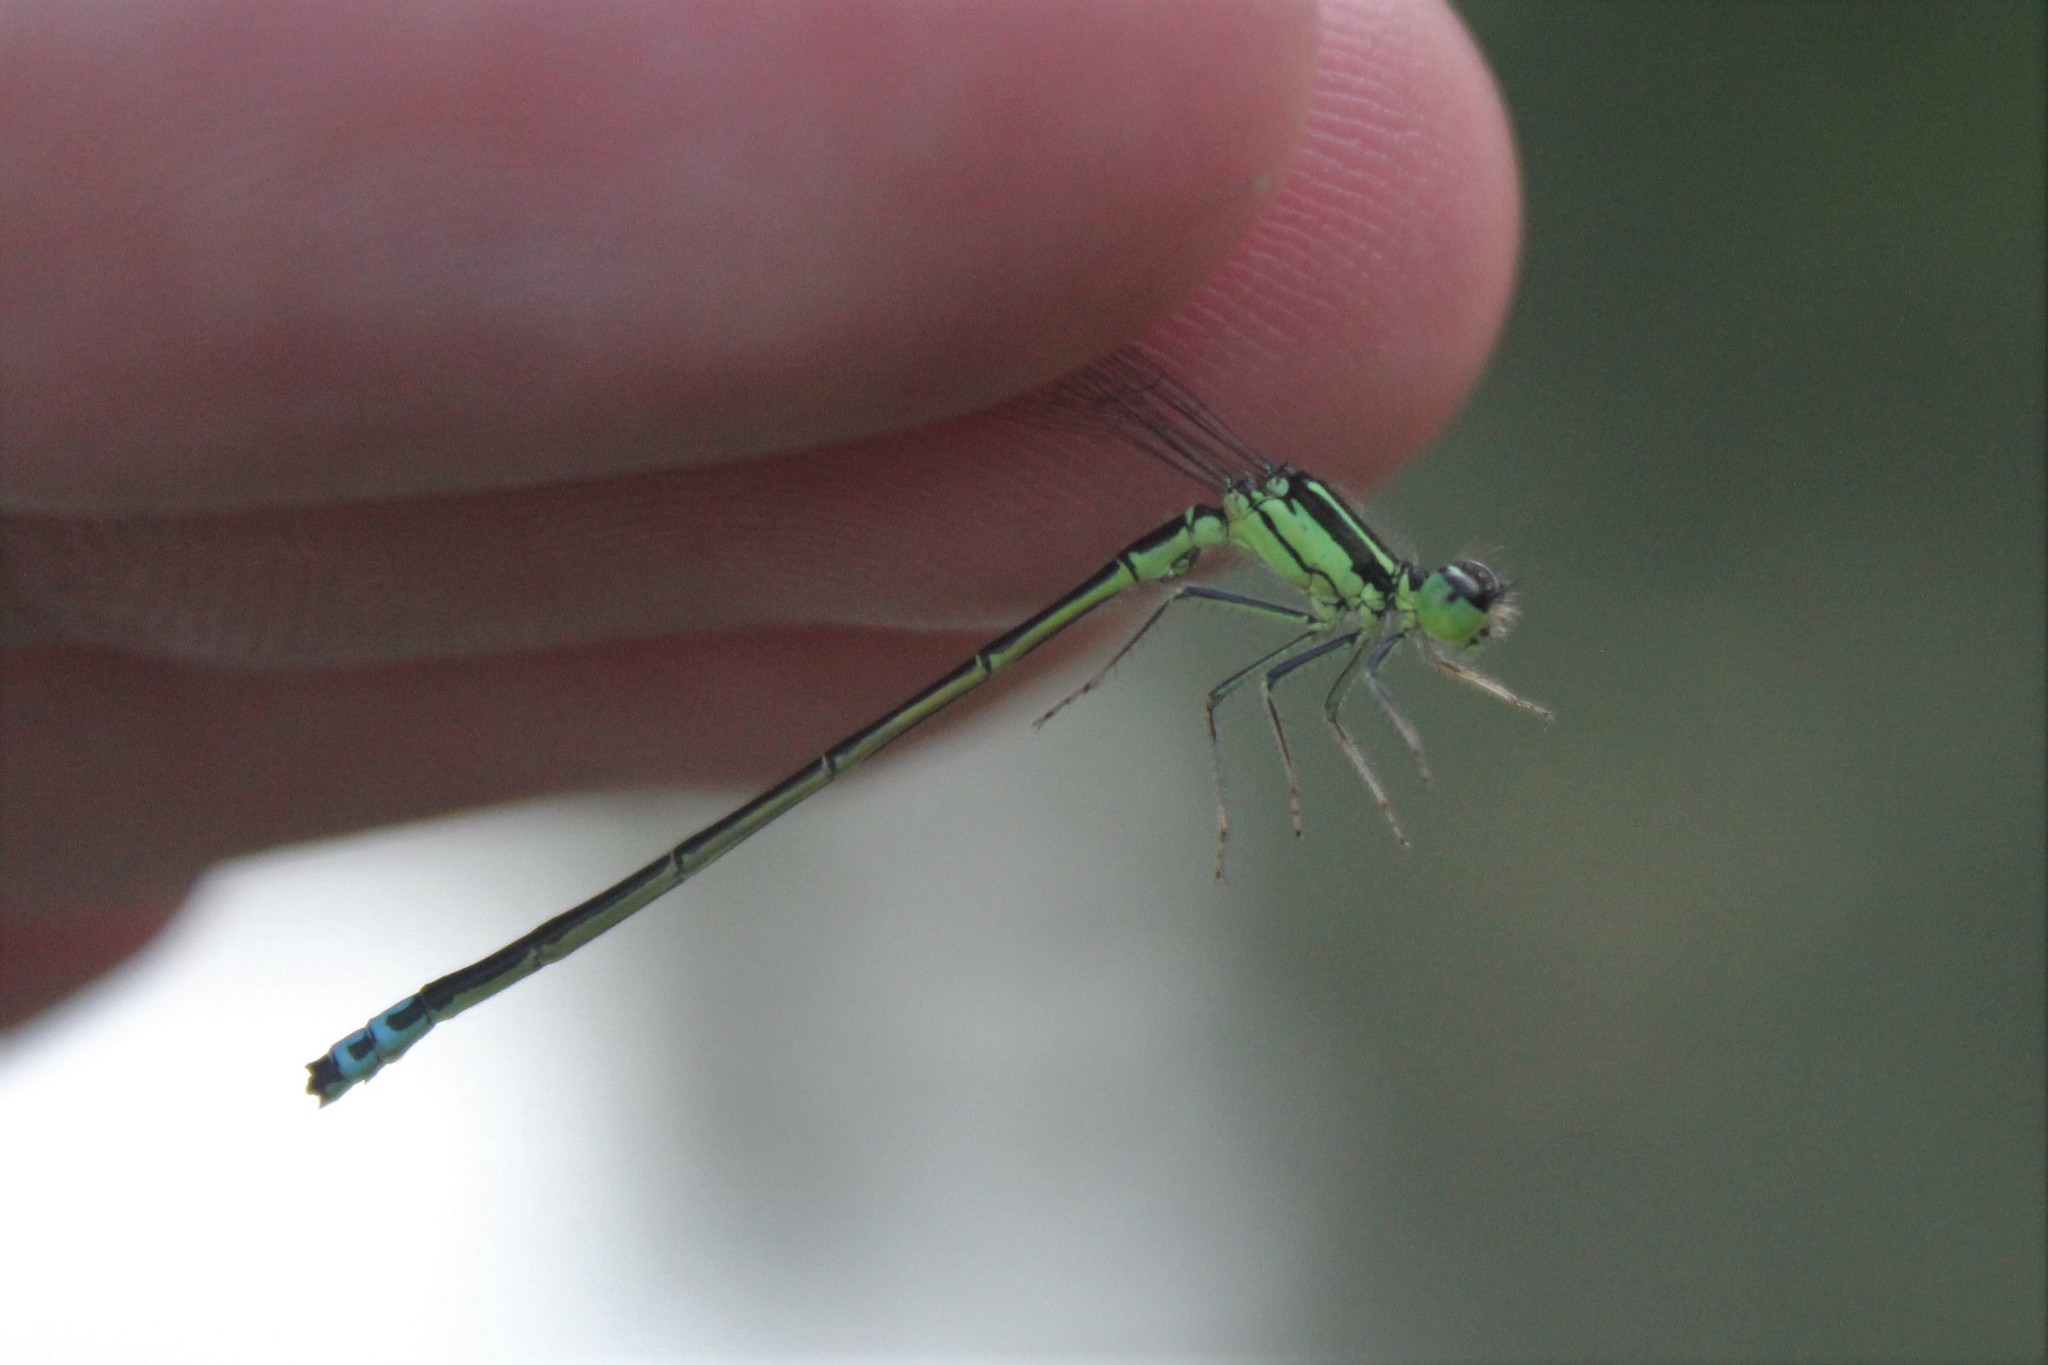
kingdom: Animalia
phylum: Arthropoda
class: Insecta
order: Odonata
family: Coenagrionidae
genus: Ischnura
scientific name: Ischnura verticalis
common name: Eastern forktail
